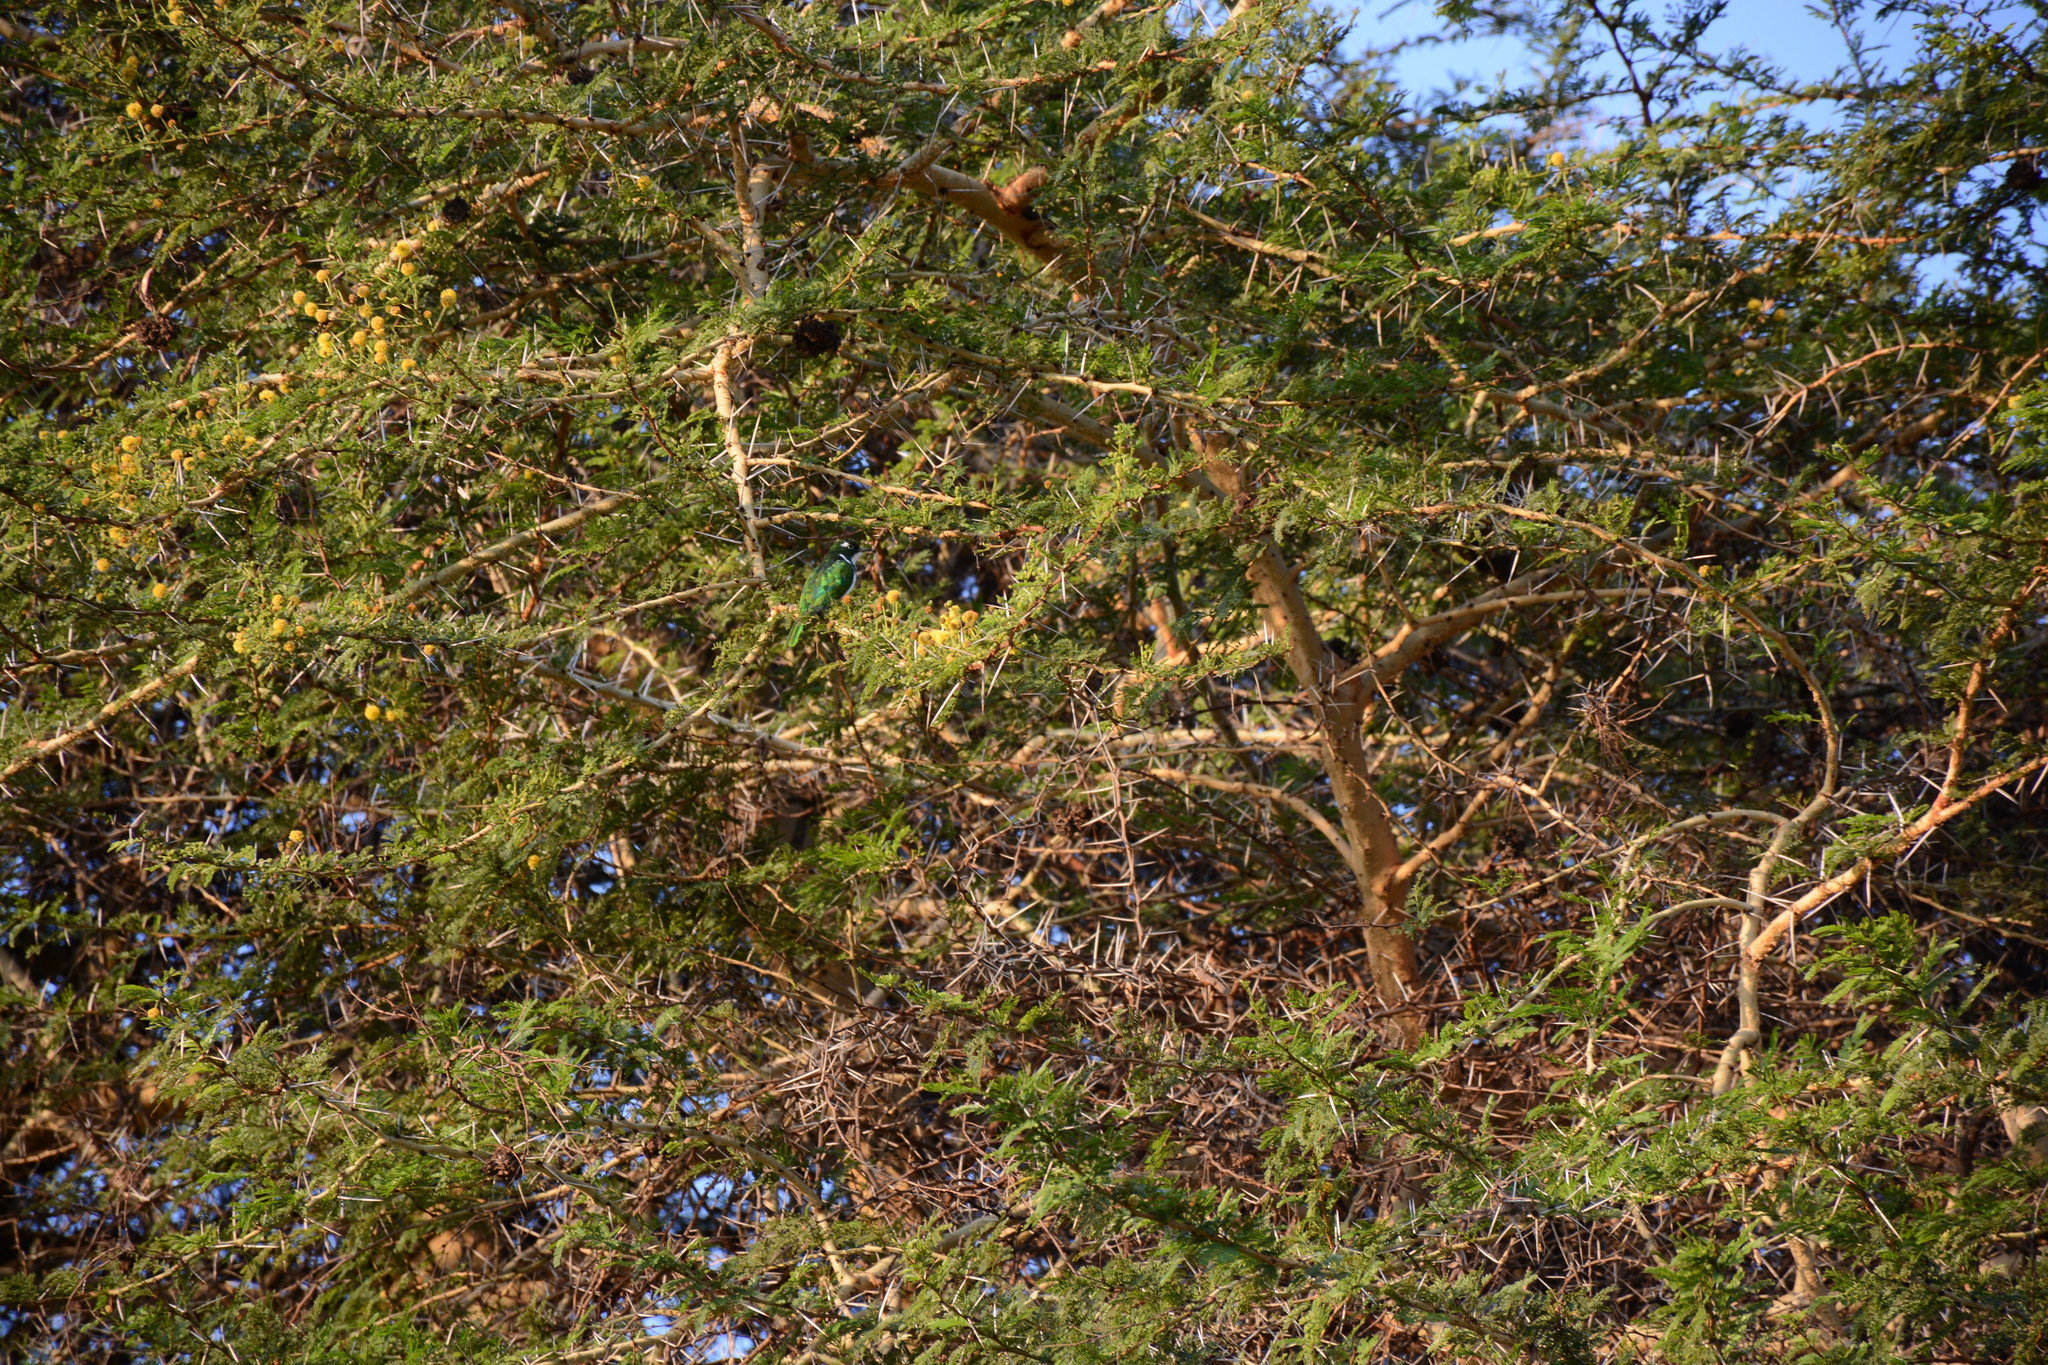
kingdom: Animalia
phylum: Chordata
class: Aves
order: Cuculiformes
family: Cuculidae
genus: Chrysococcyx
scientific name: Chrysococcyx klaas
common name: Klaas's cuckoo
